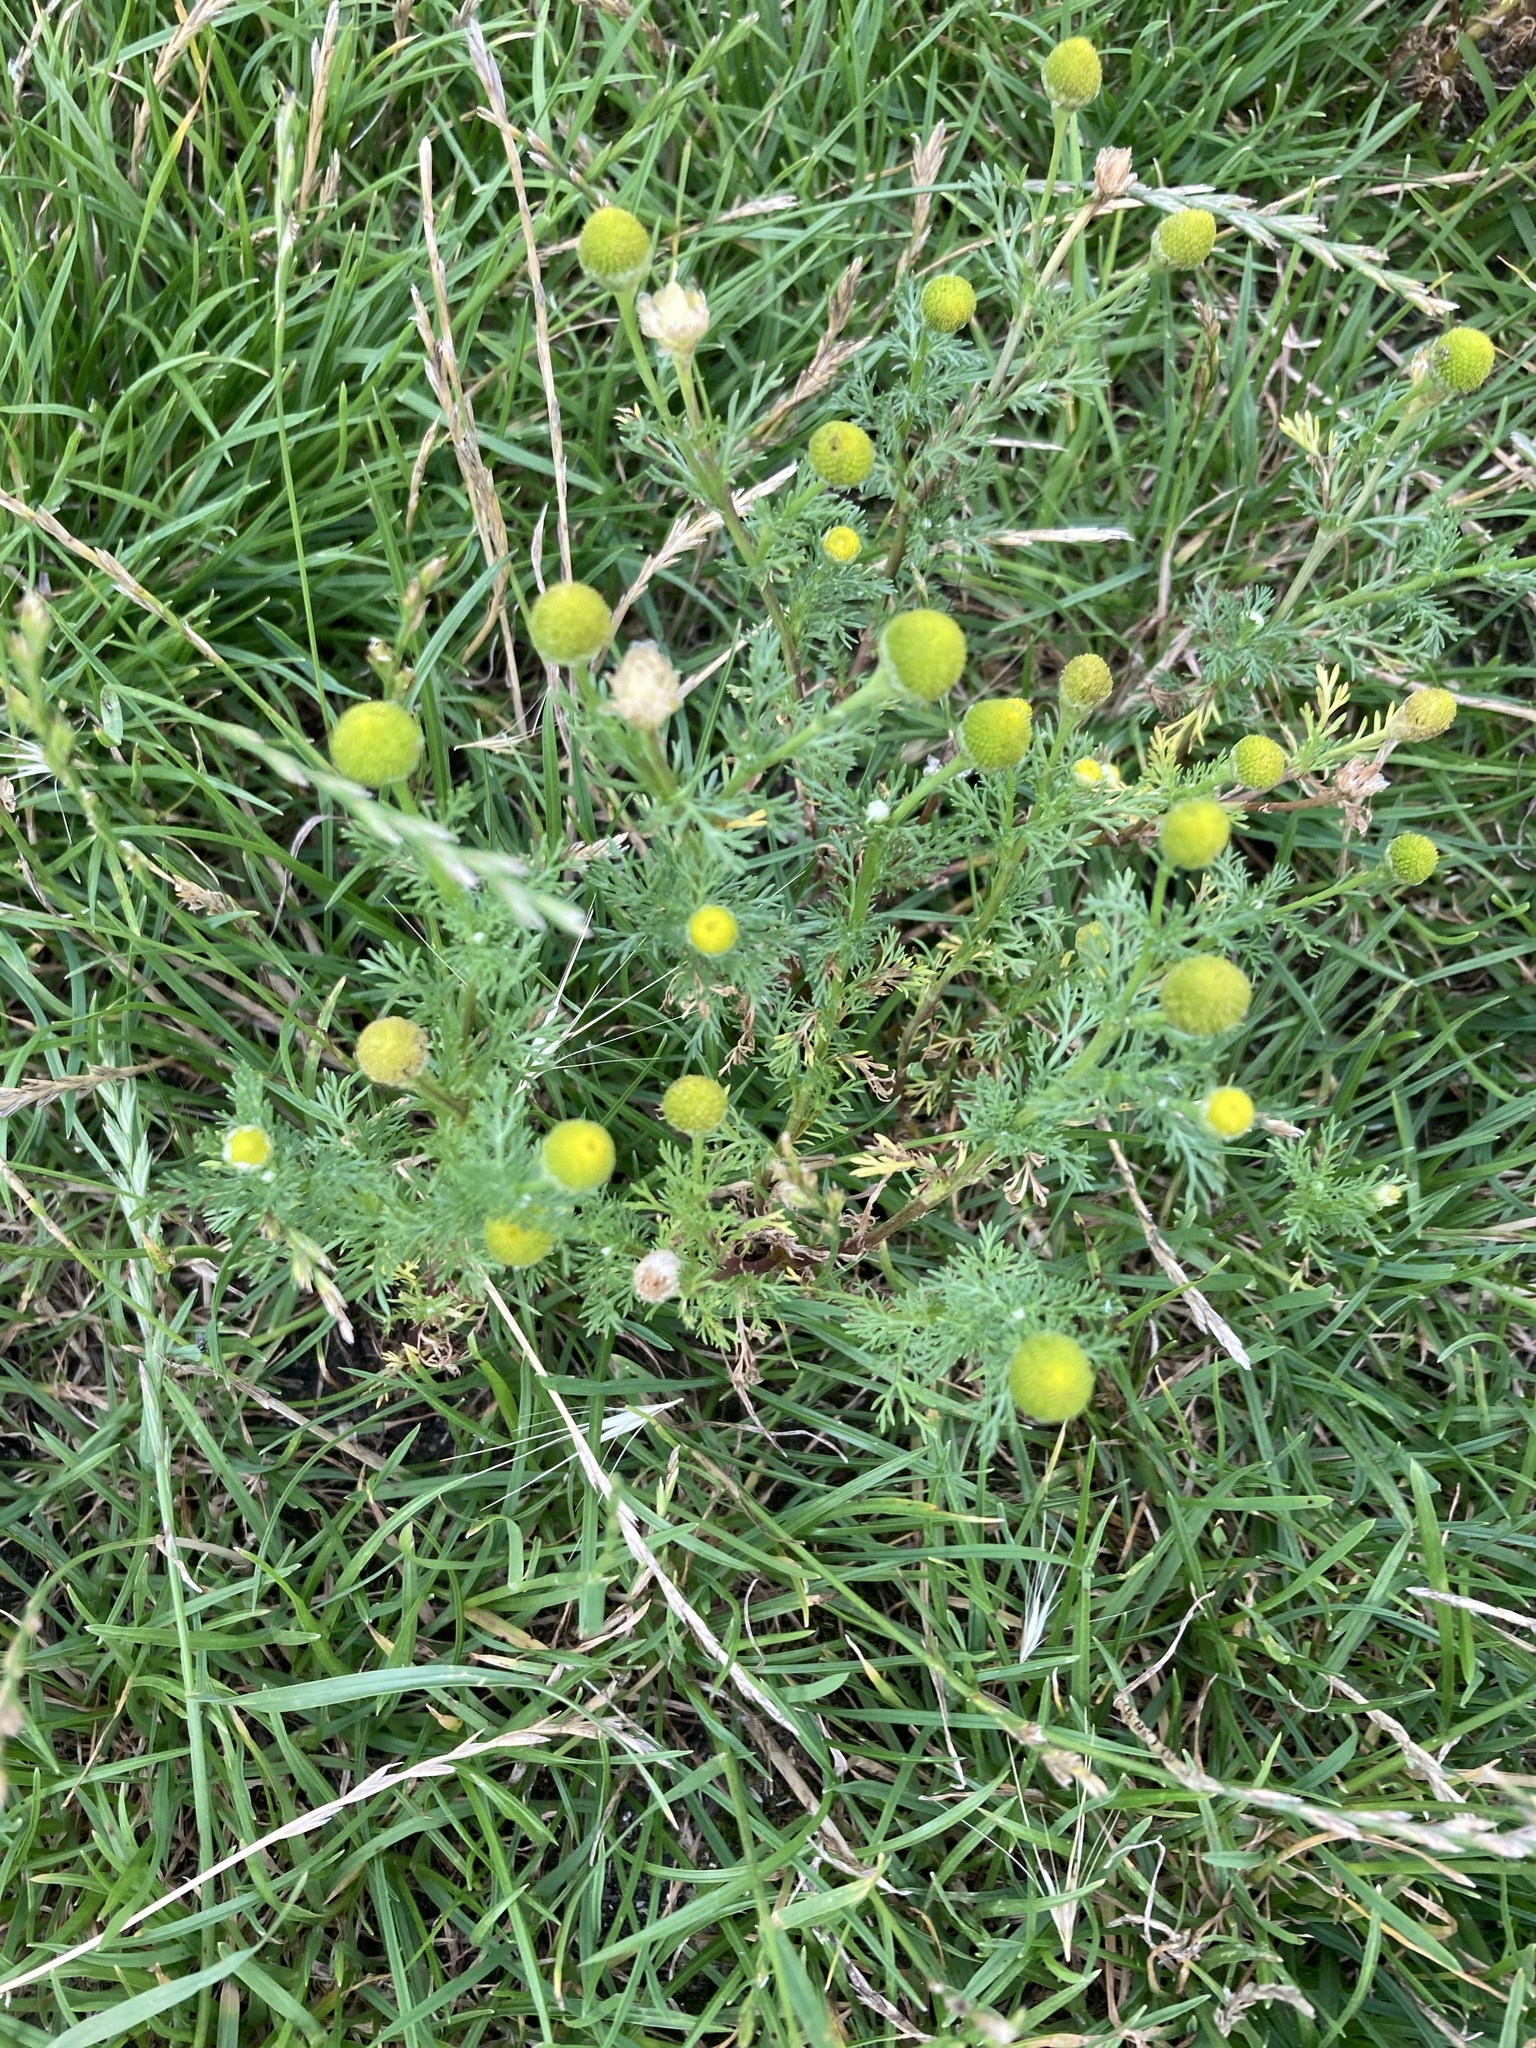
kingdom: Plantae
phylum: Tracheophyta
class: Magnoliopsida
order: Asterales
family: Asteraceae
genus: Matricaria
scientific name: Matricaria discoidea
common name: Disc mayweed
